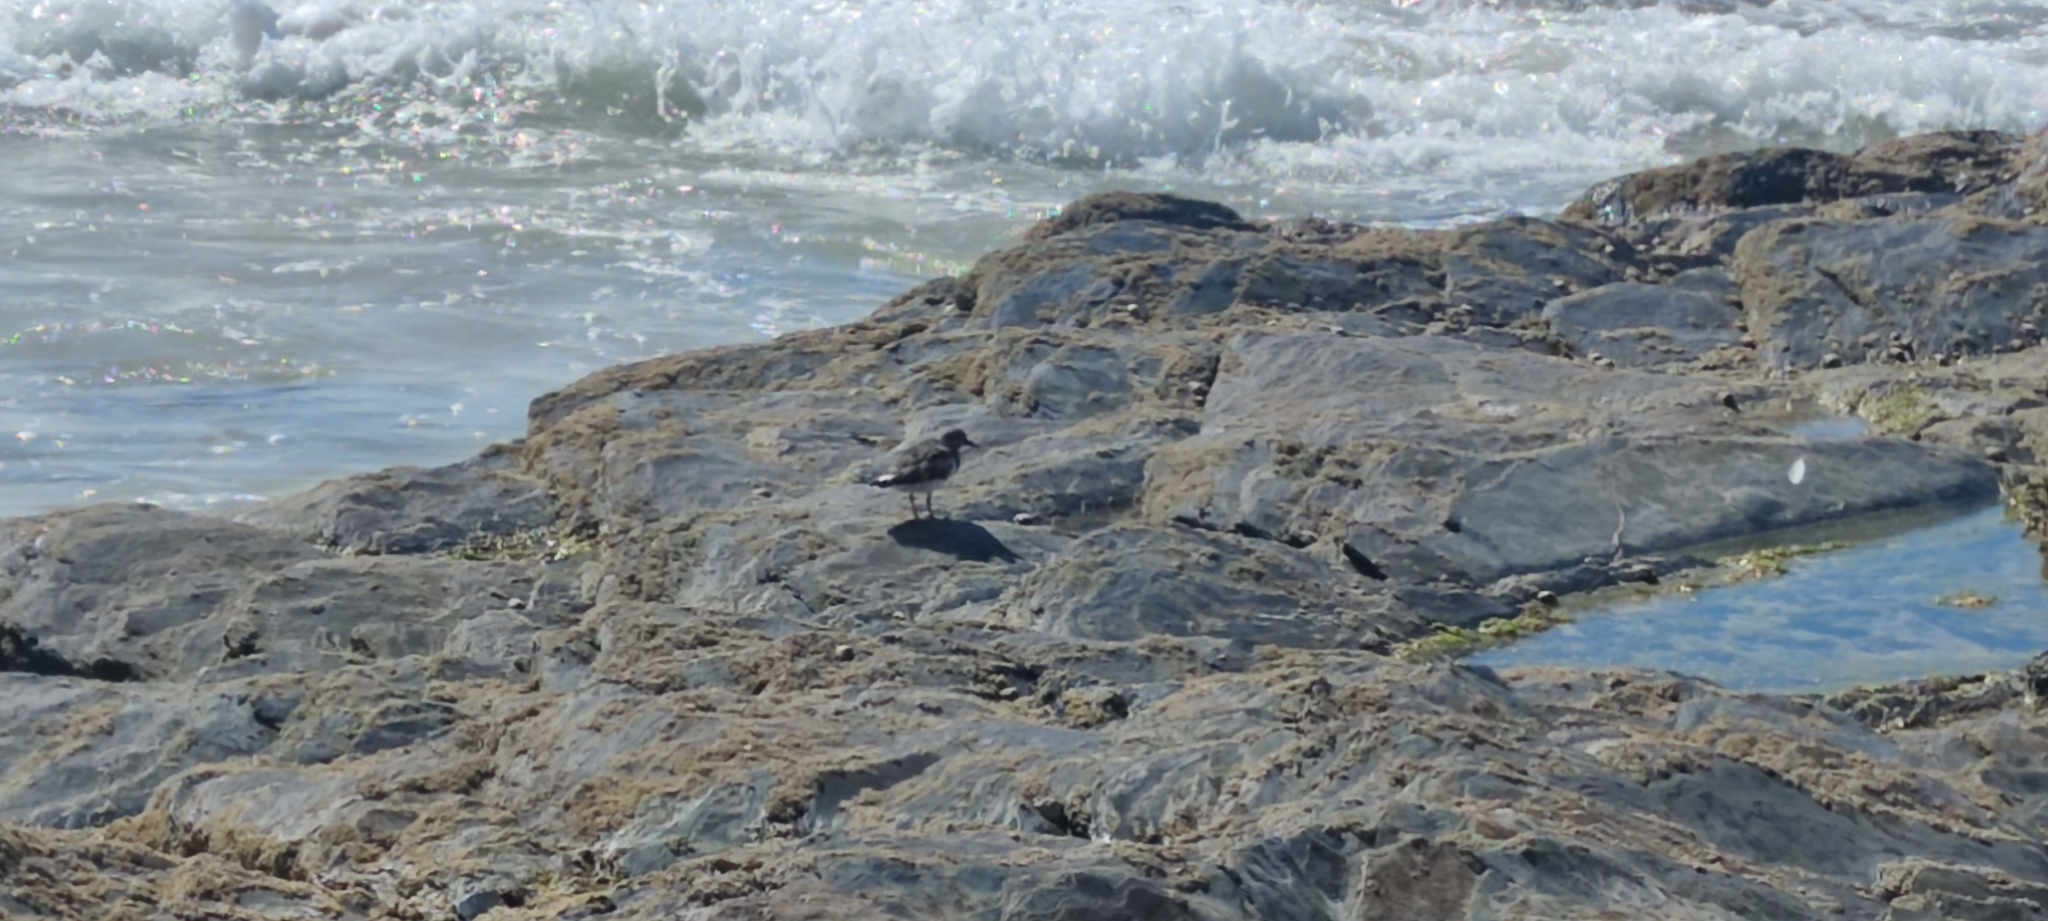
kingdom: Animalia
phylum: Chordata
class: Aves
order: Charadriiformes
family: Scolopacidae
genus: Arenaria
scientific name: Arenaria interpres
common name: Ruddy turnstone
